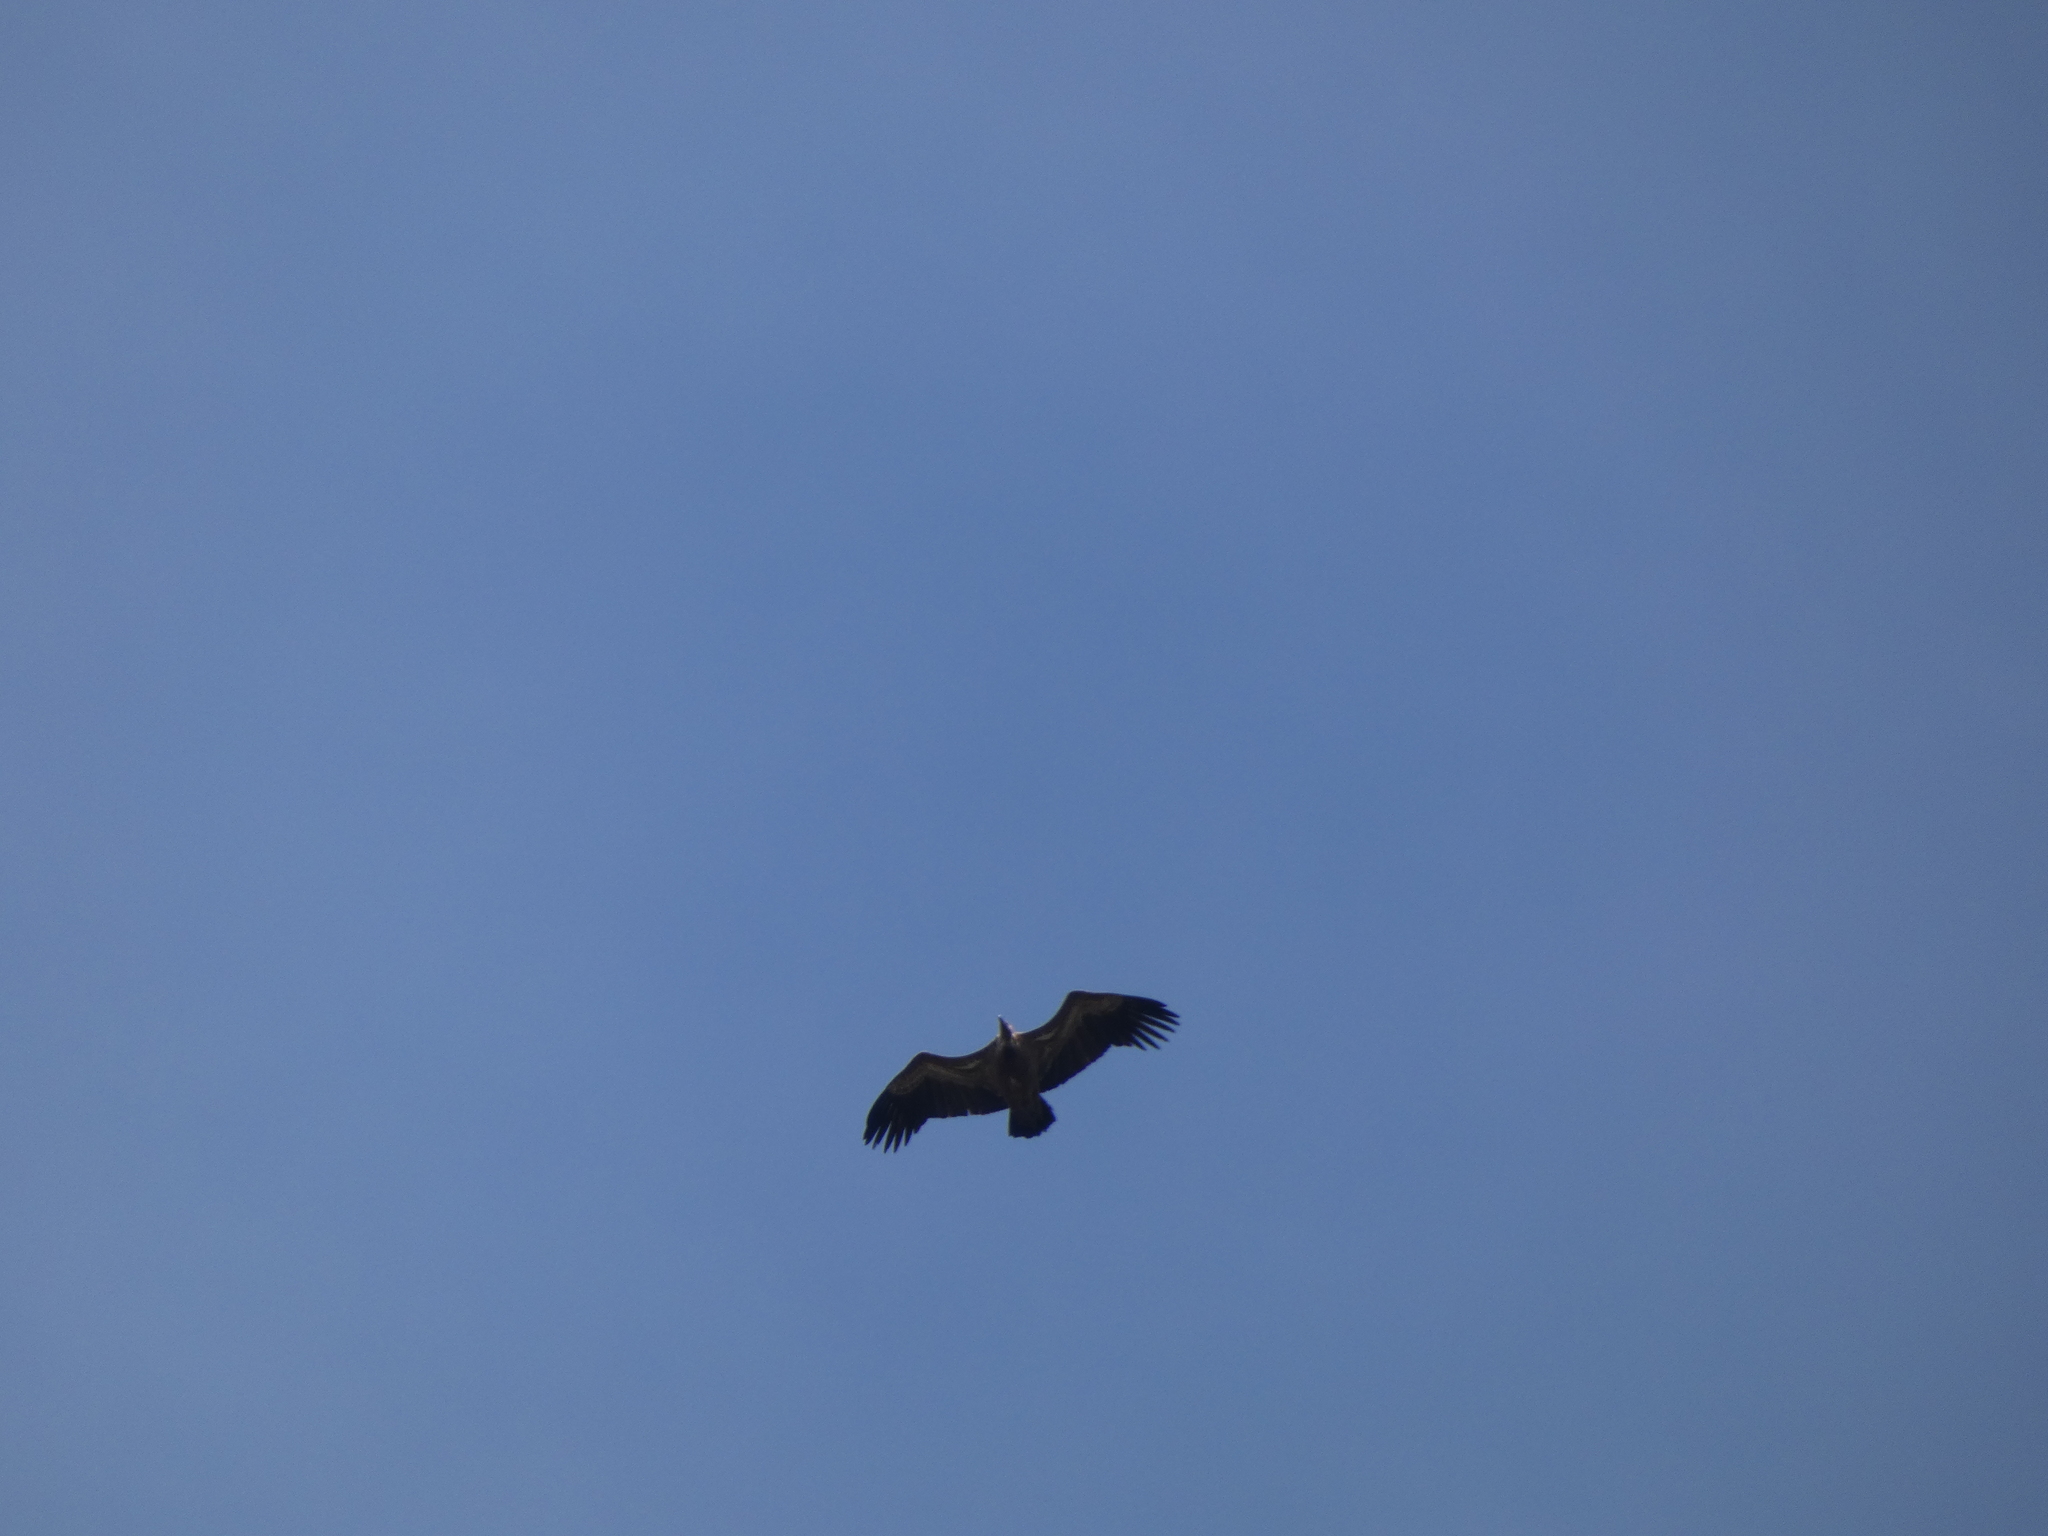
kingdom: Animalia
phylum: Chordata
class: Aves
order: Accipitriformes
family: Accipitridae
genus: Gyps
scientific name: Gyps fulvus
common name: Griffon vulture
